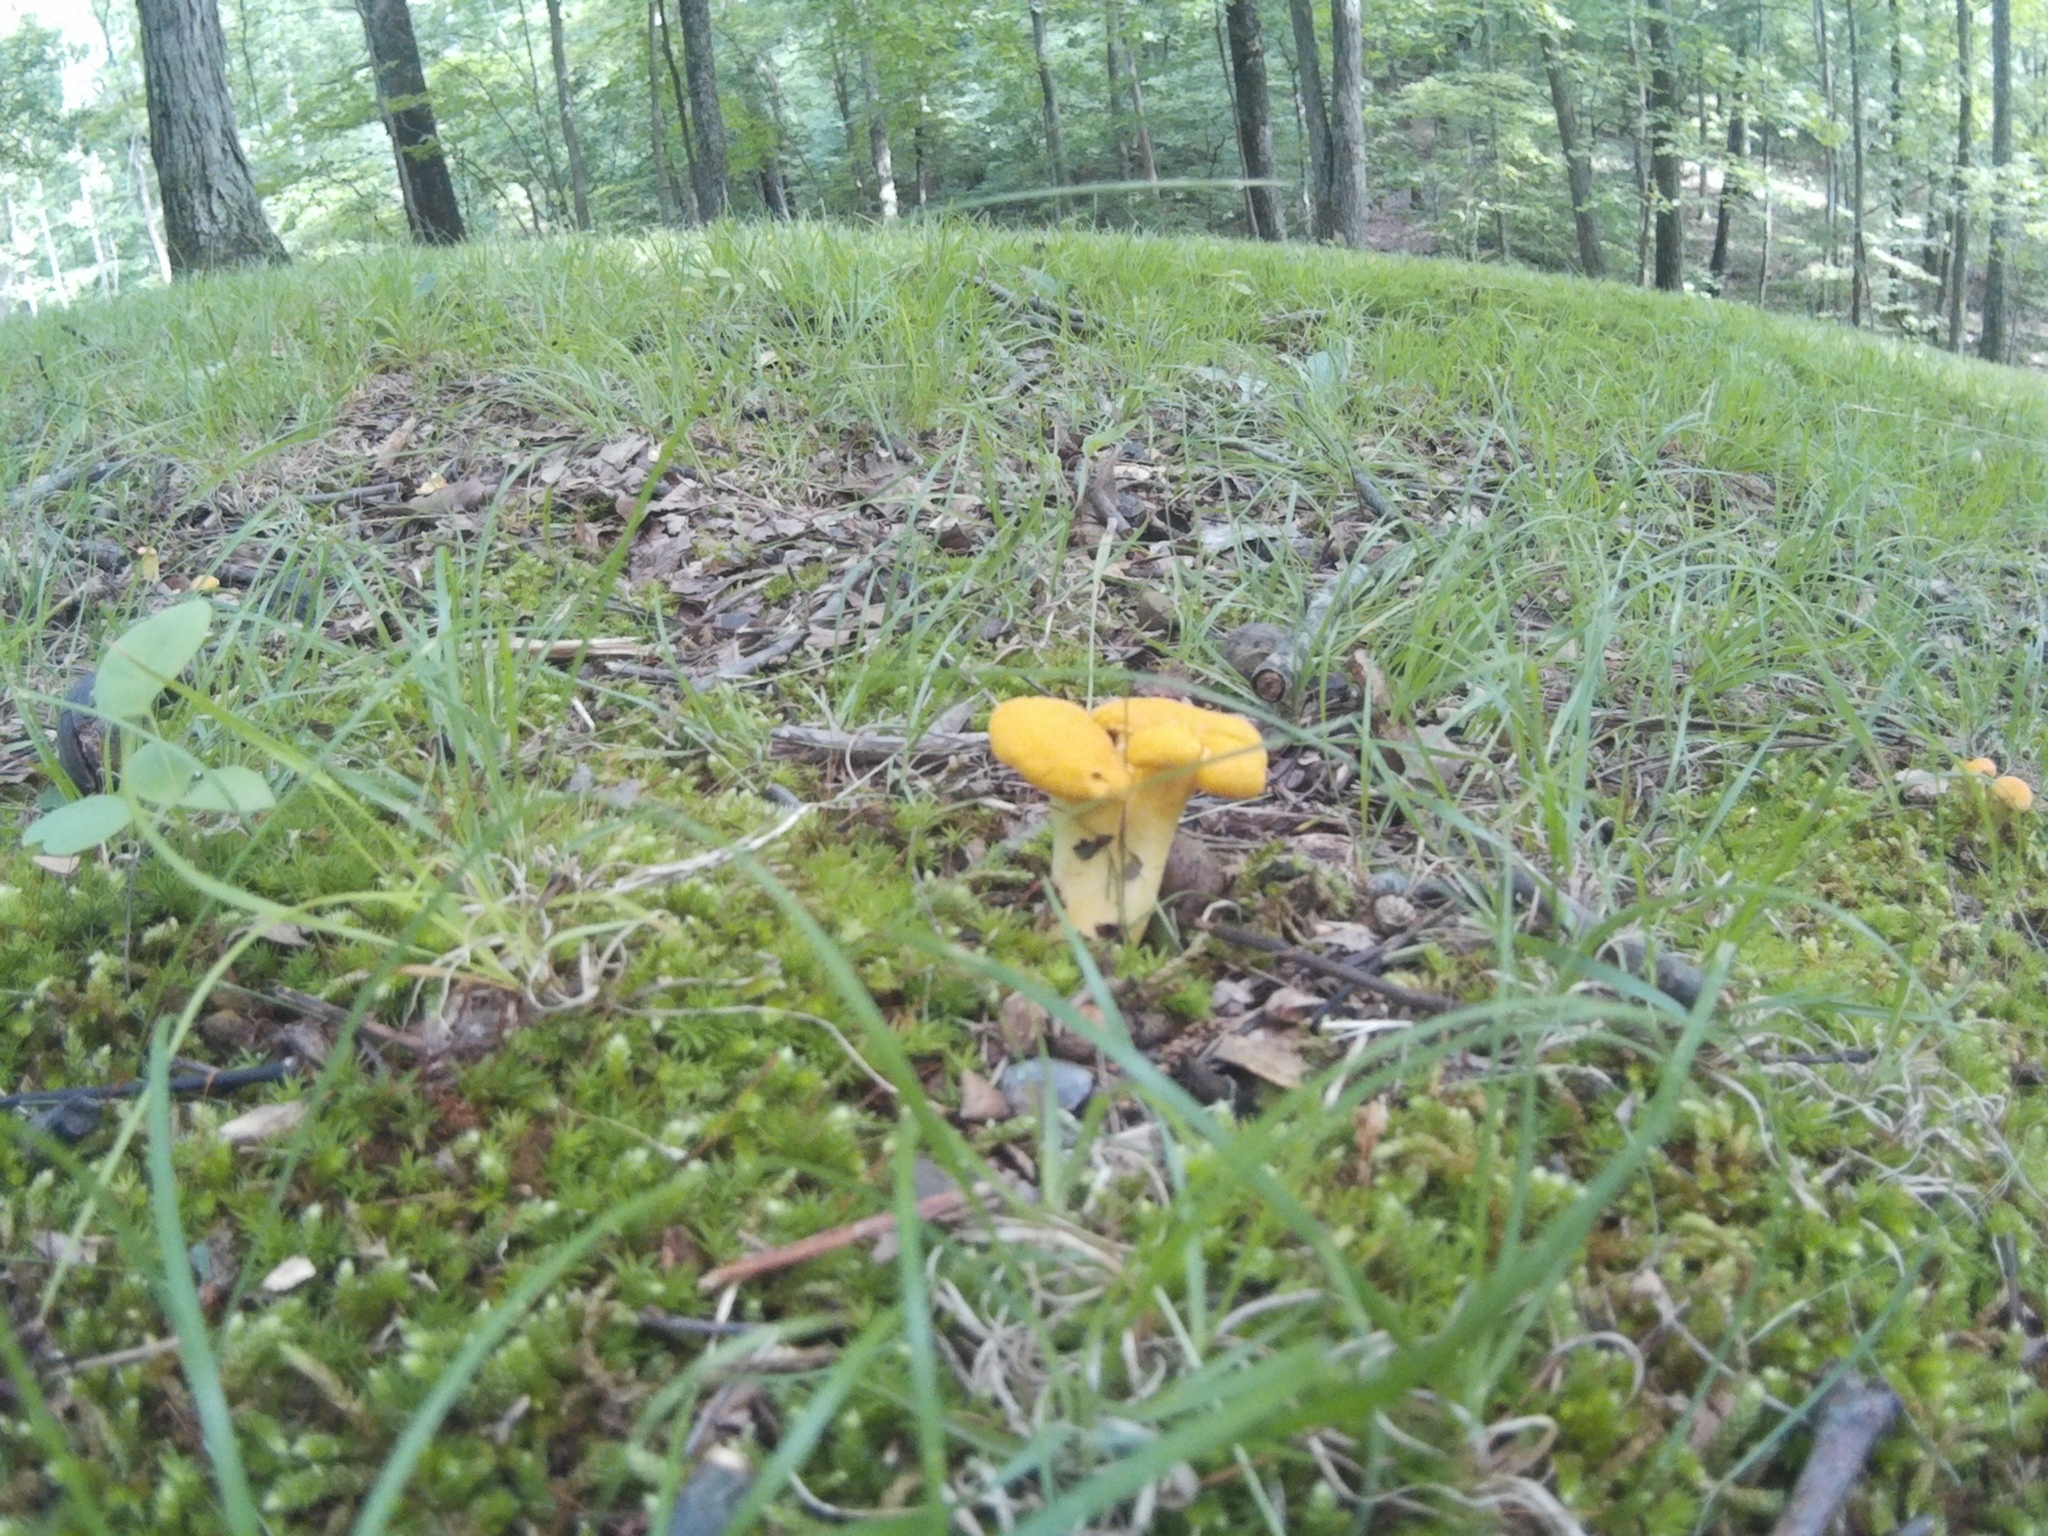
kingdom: Fungi
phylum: Basidiomycota
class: Agaricomycetes
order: Cantharellales
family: Hydnaceae
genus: Cantharellus
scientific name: Cantharellus flavolateritius
